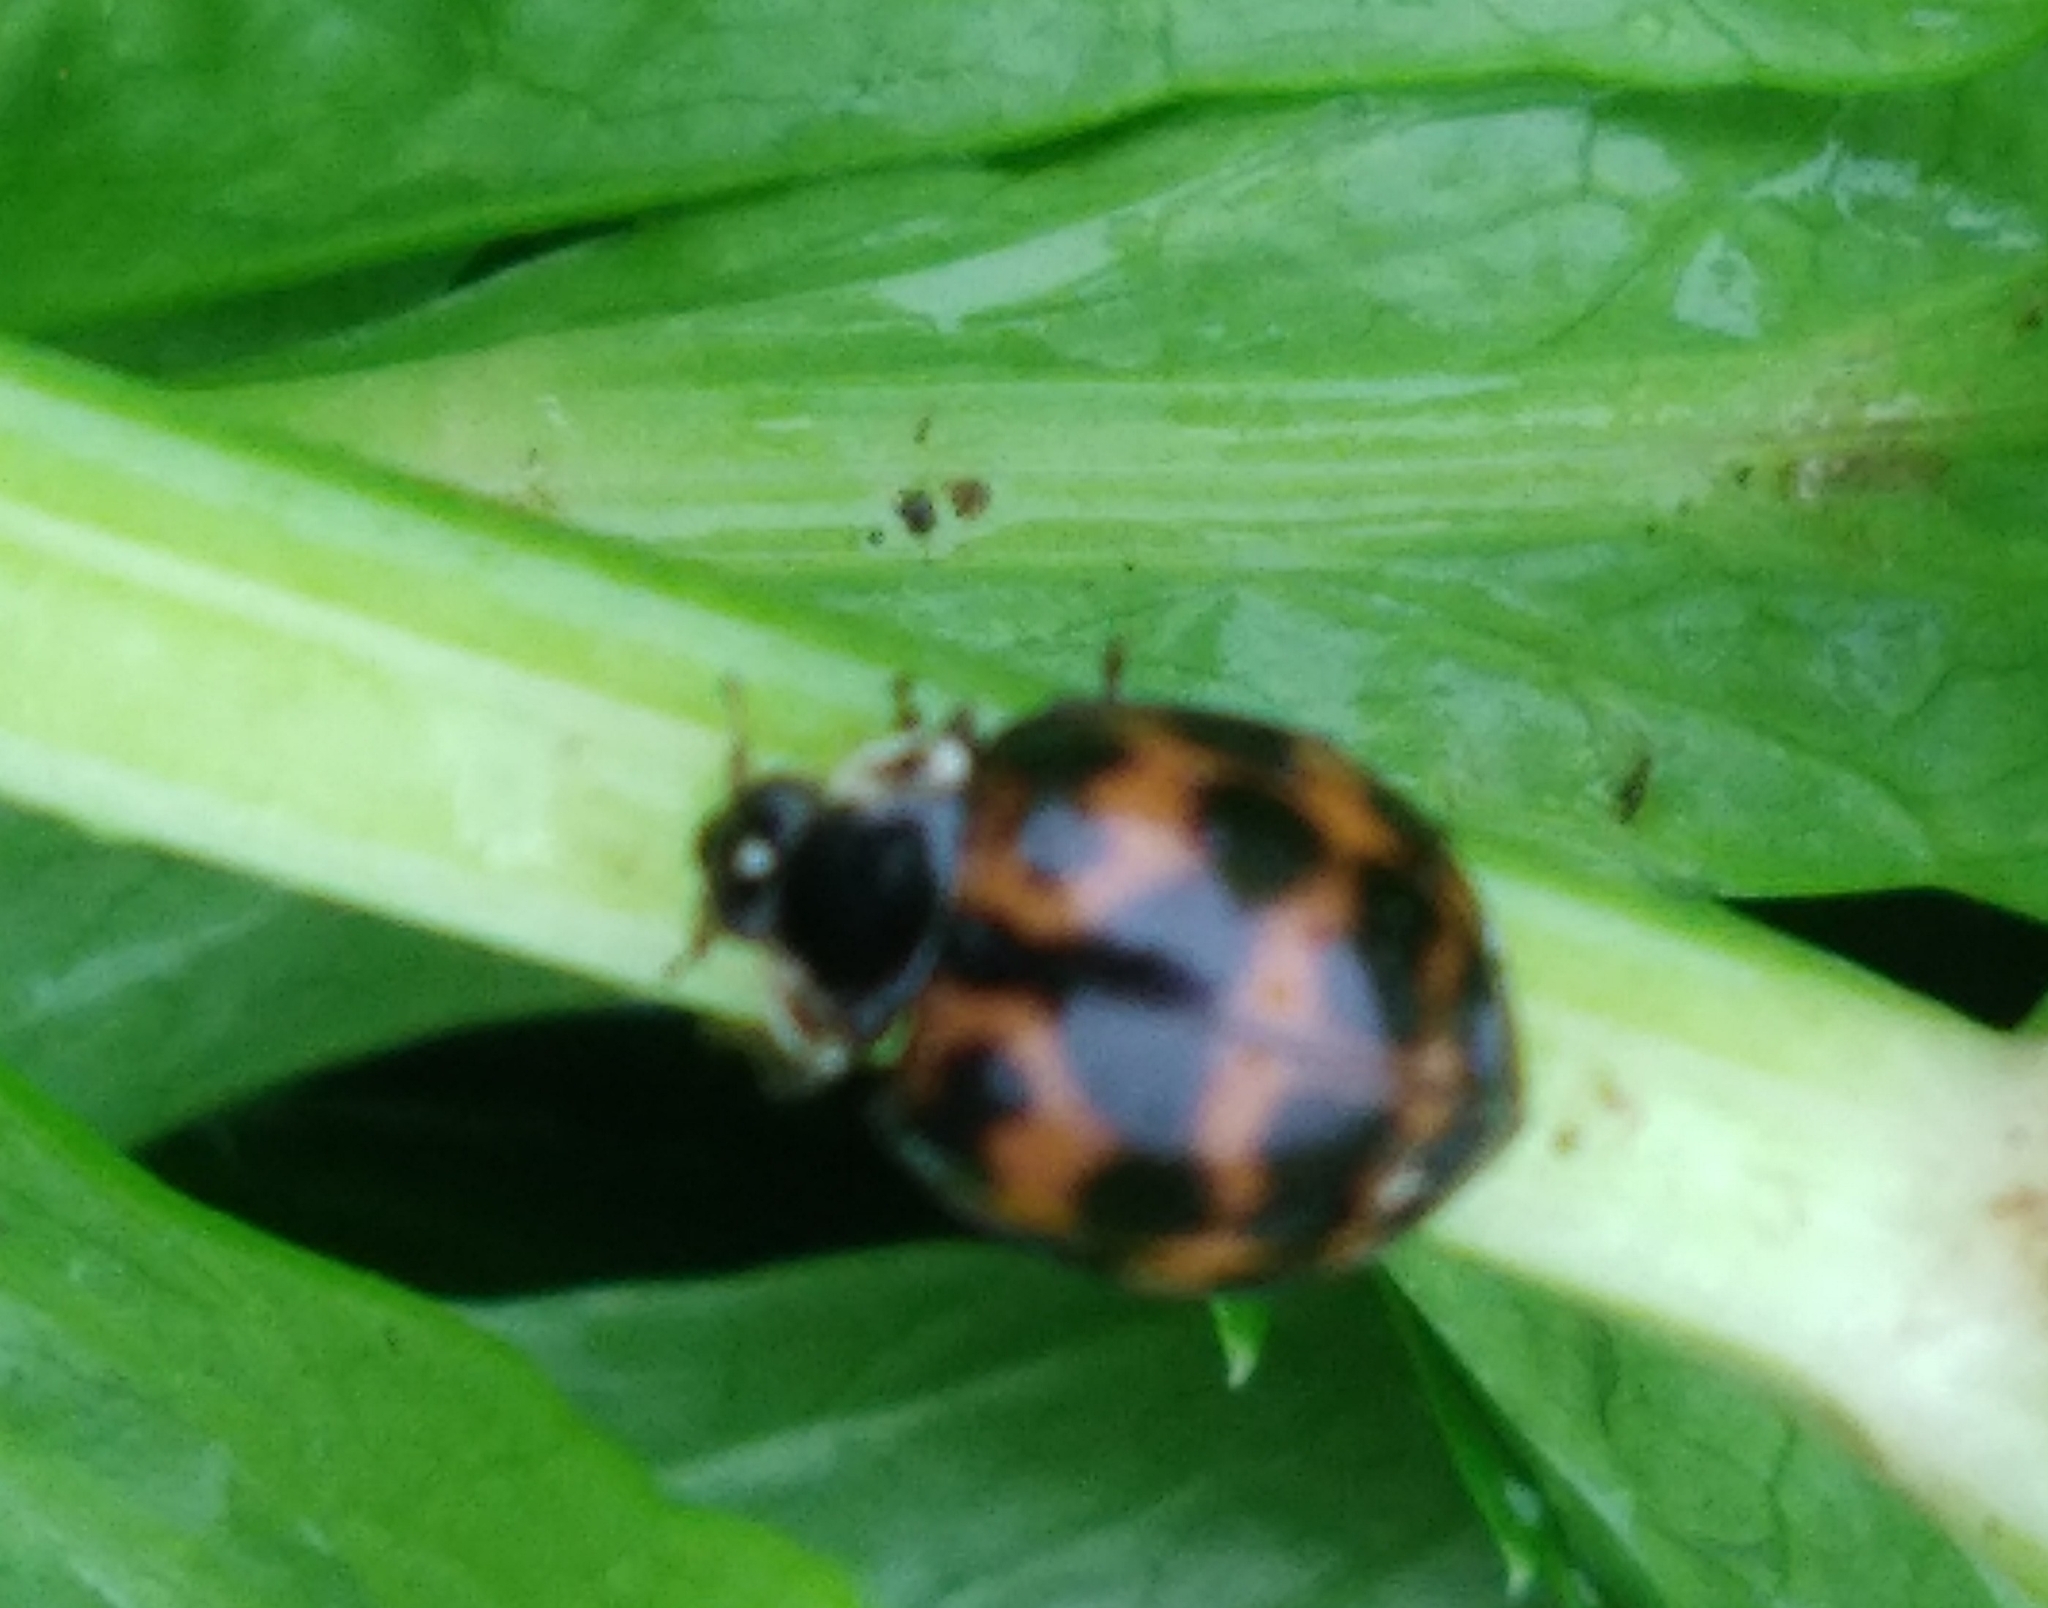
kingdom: Animalia
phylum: Arthropoda
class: Insecta
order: Coleoptera
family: Coccinellidae
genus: Harmonia
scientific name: Harmonia axyridis
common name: Harlequin ladybird
